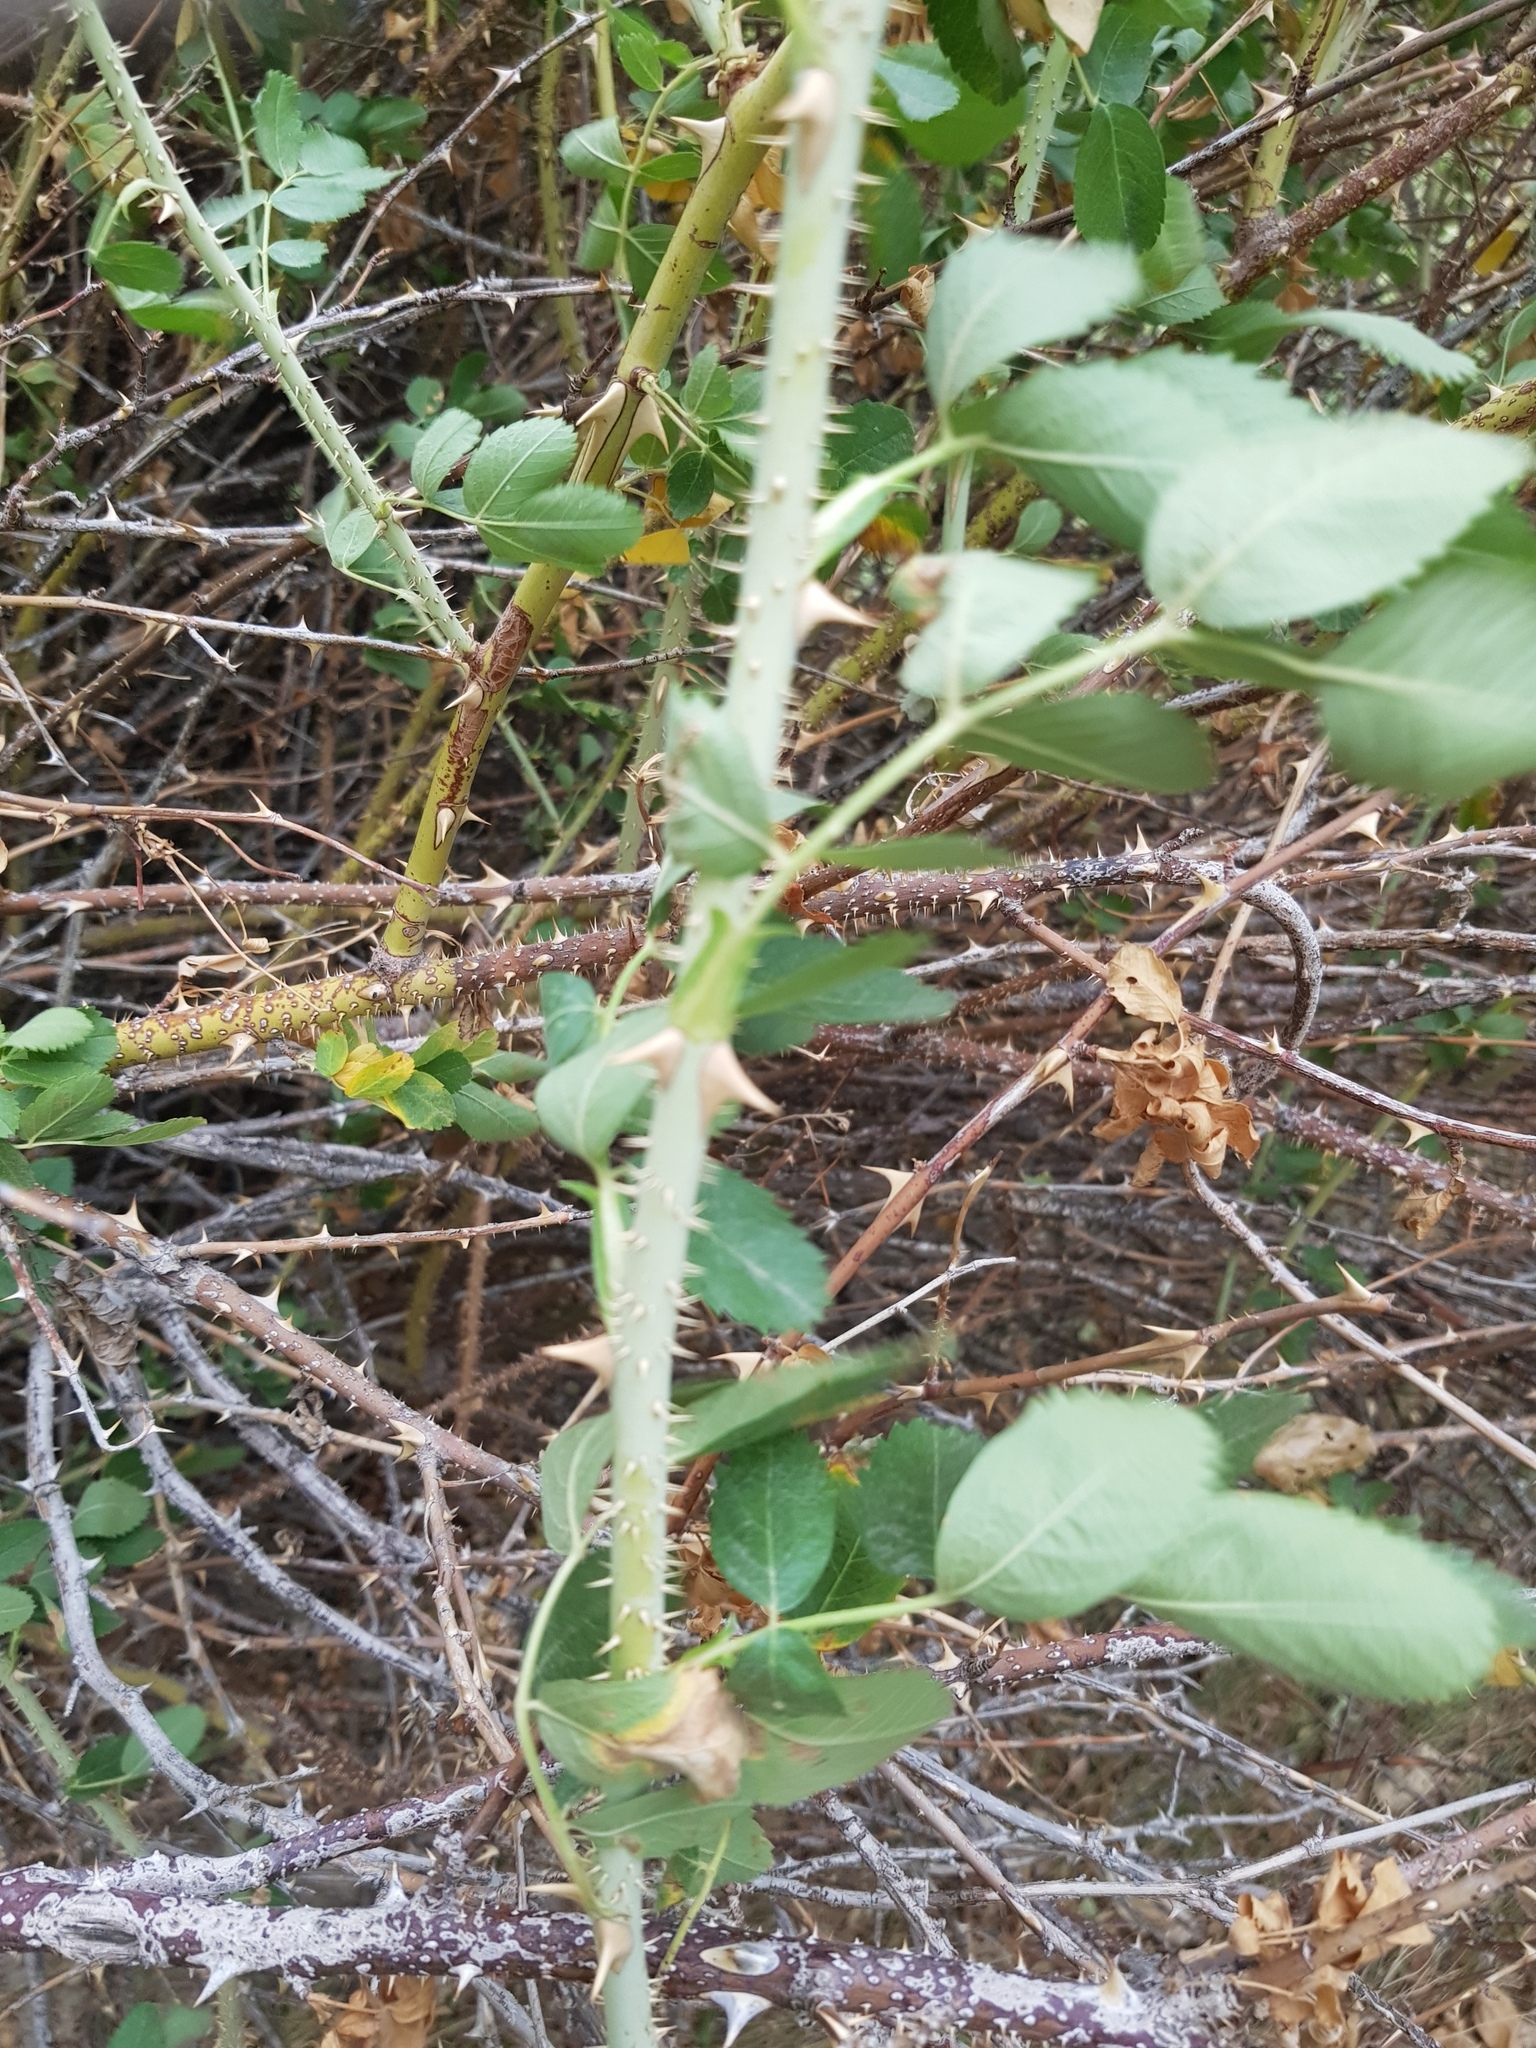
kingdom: Plantae
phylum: Tracheophyta
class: Magnoliopsida
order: Rosales
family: Rosaceae
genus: Rosa
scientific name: Rosa laxa
